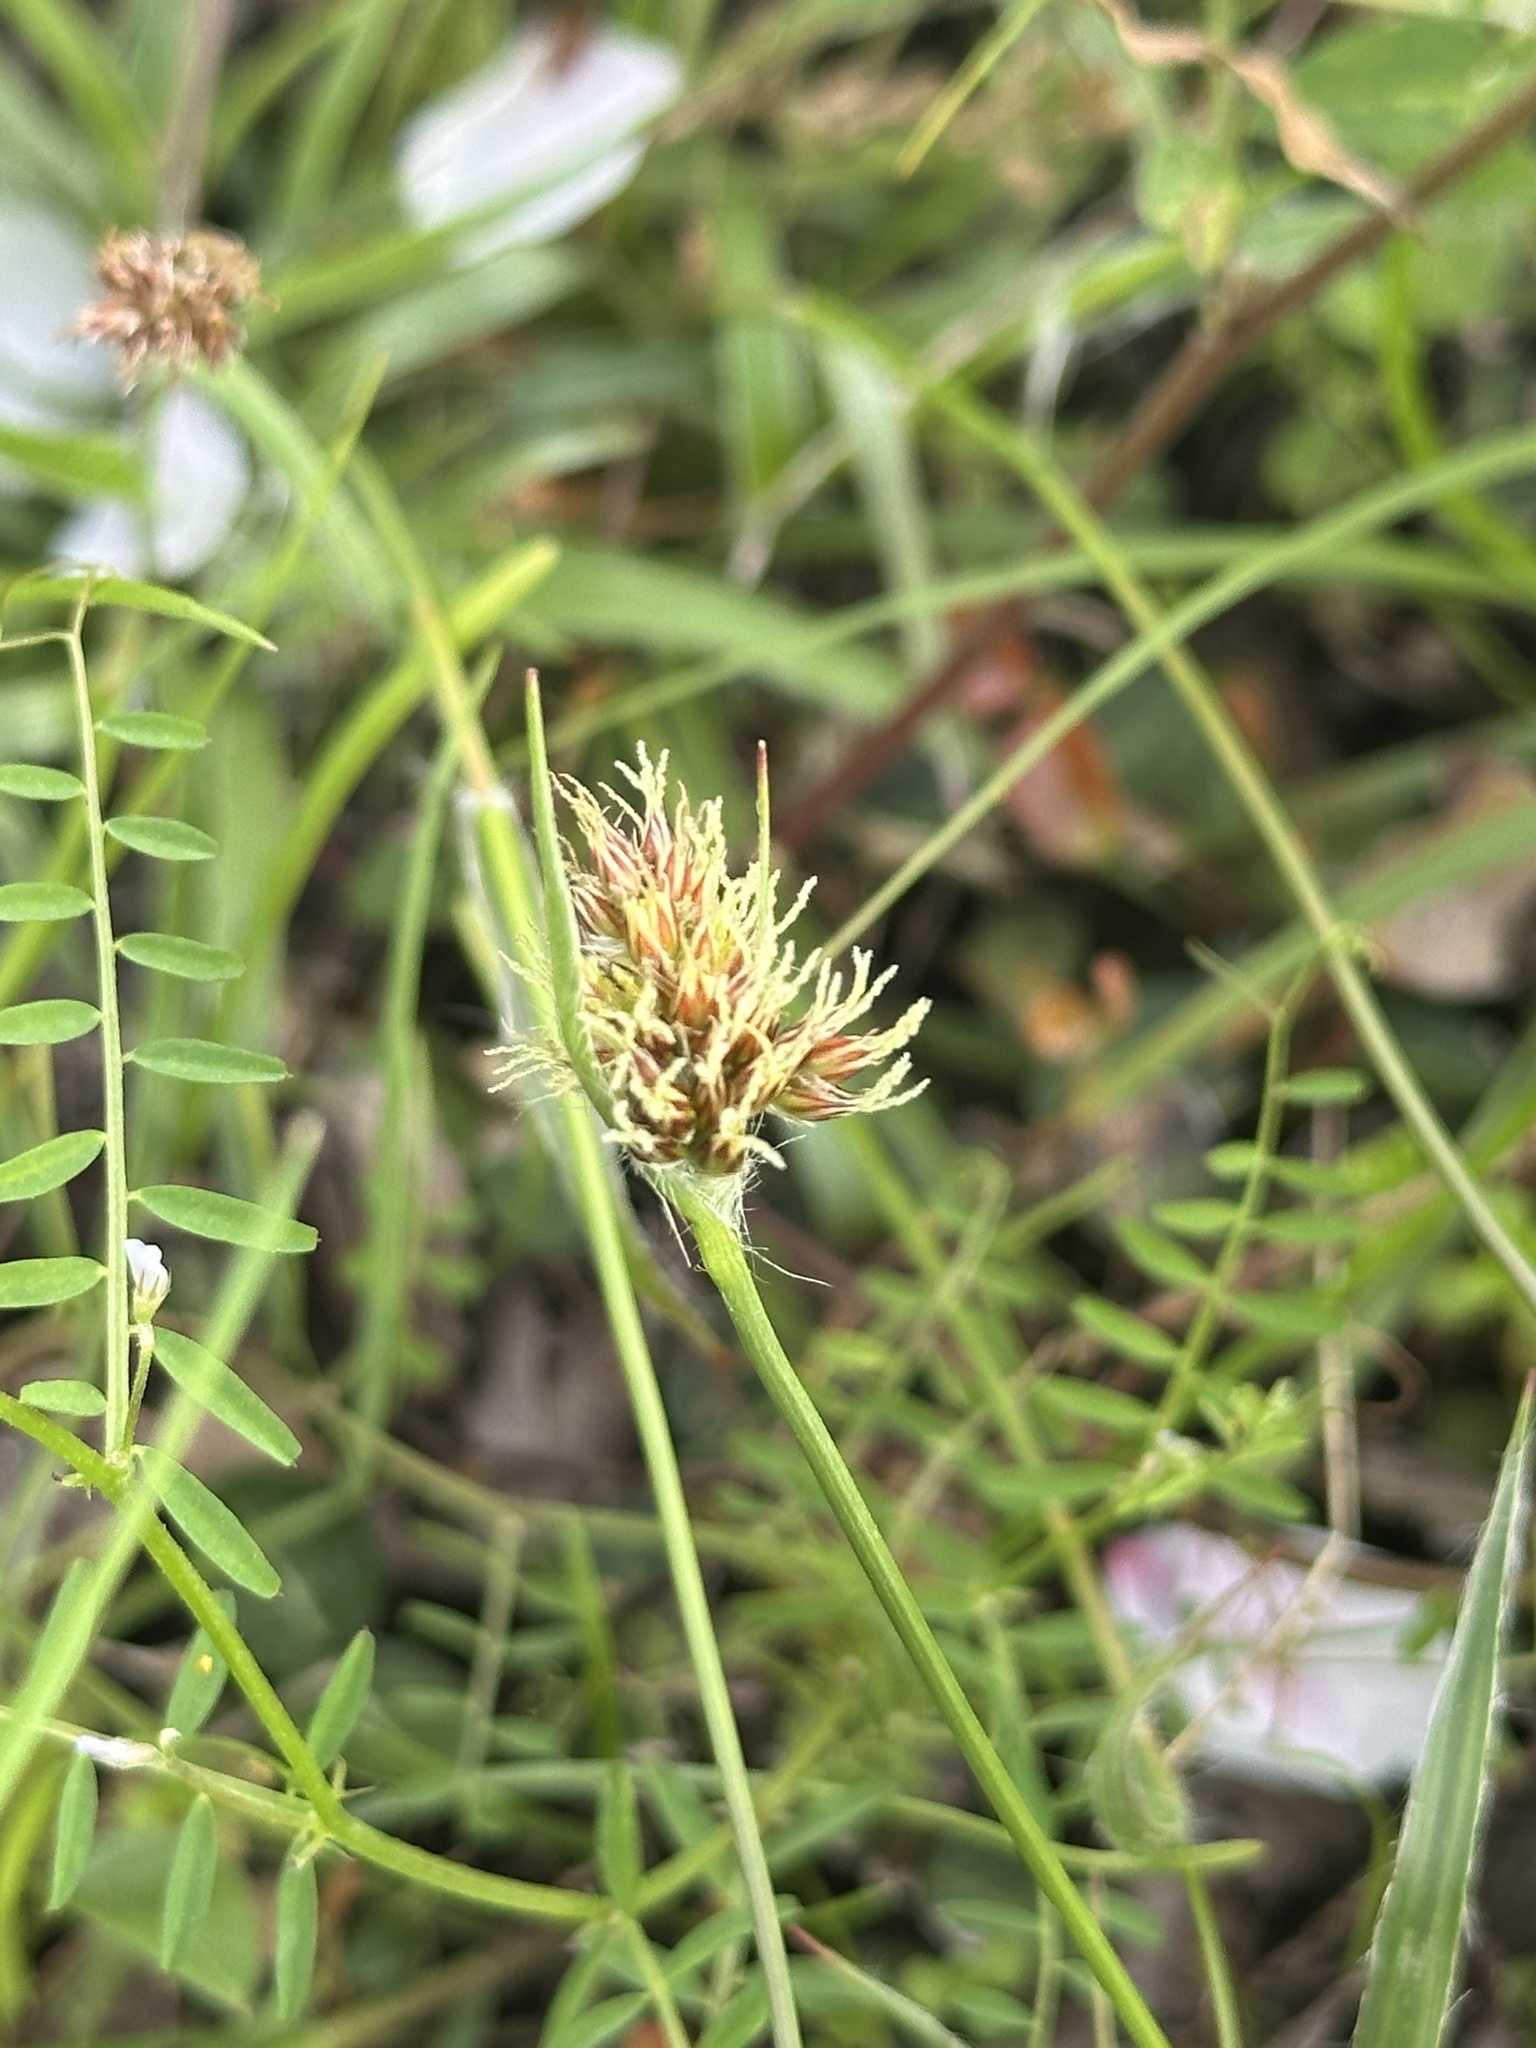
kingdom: Plantae
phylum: Tracheophyta
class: Liliopsida
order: Poales
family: Juncaceae
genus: Luzula
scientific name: Luzula capitata
